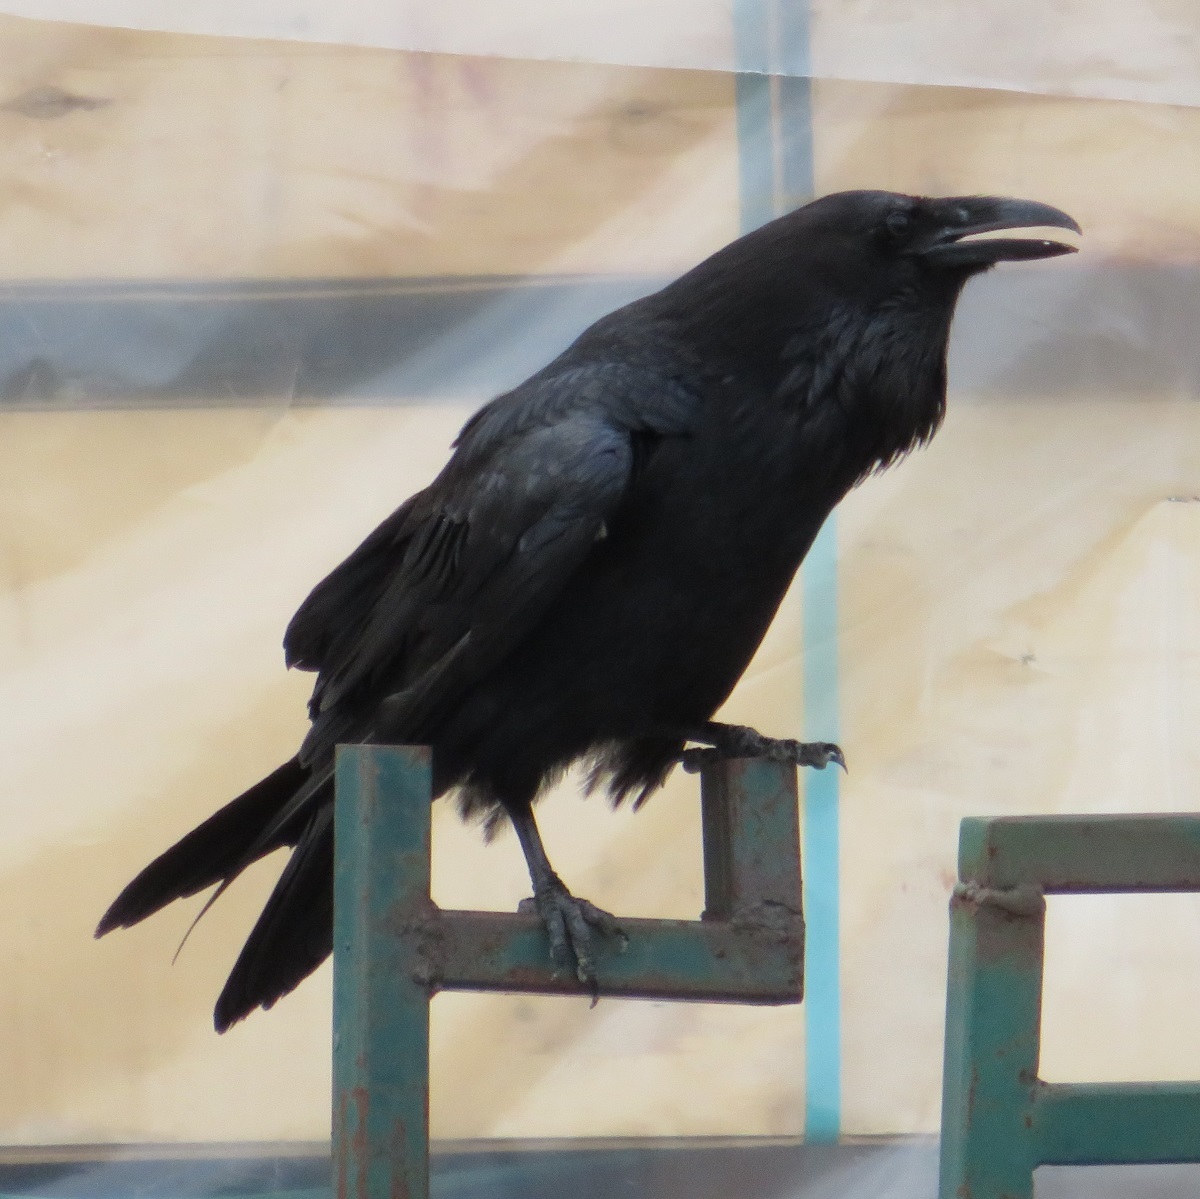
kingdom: Animalia
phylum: Chordata
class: Aves
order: Passeriformes
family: Corvidae
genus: Corvus
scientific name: Corvus corax
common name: Common raven
